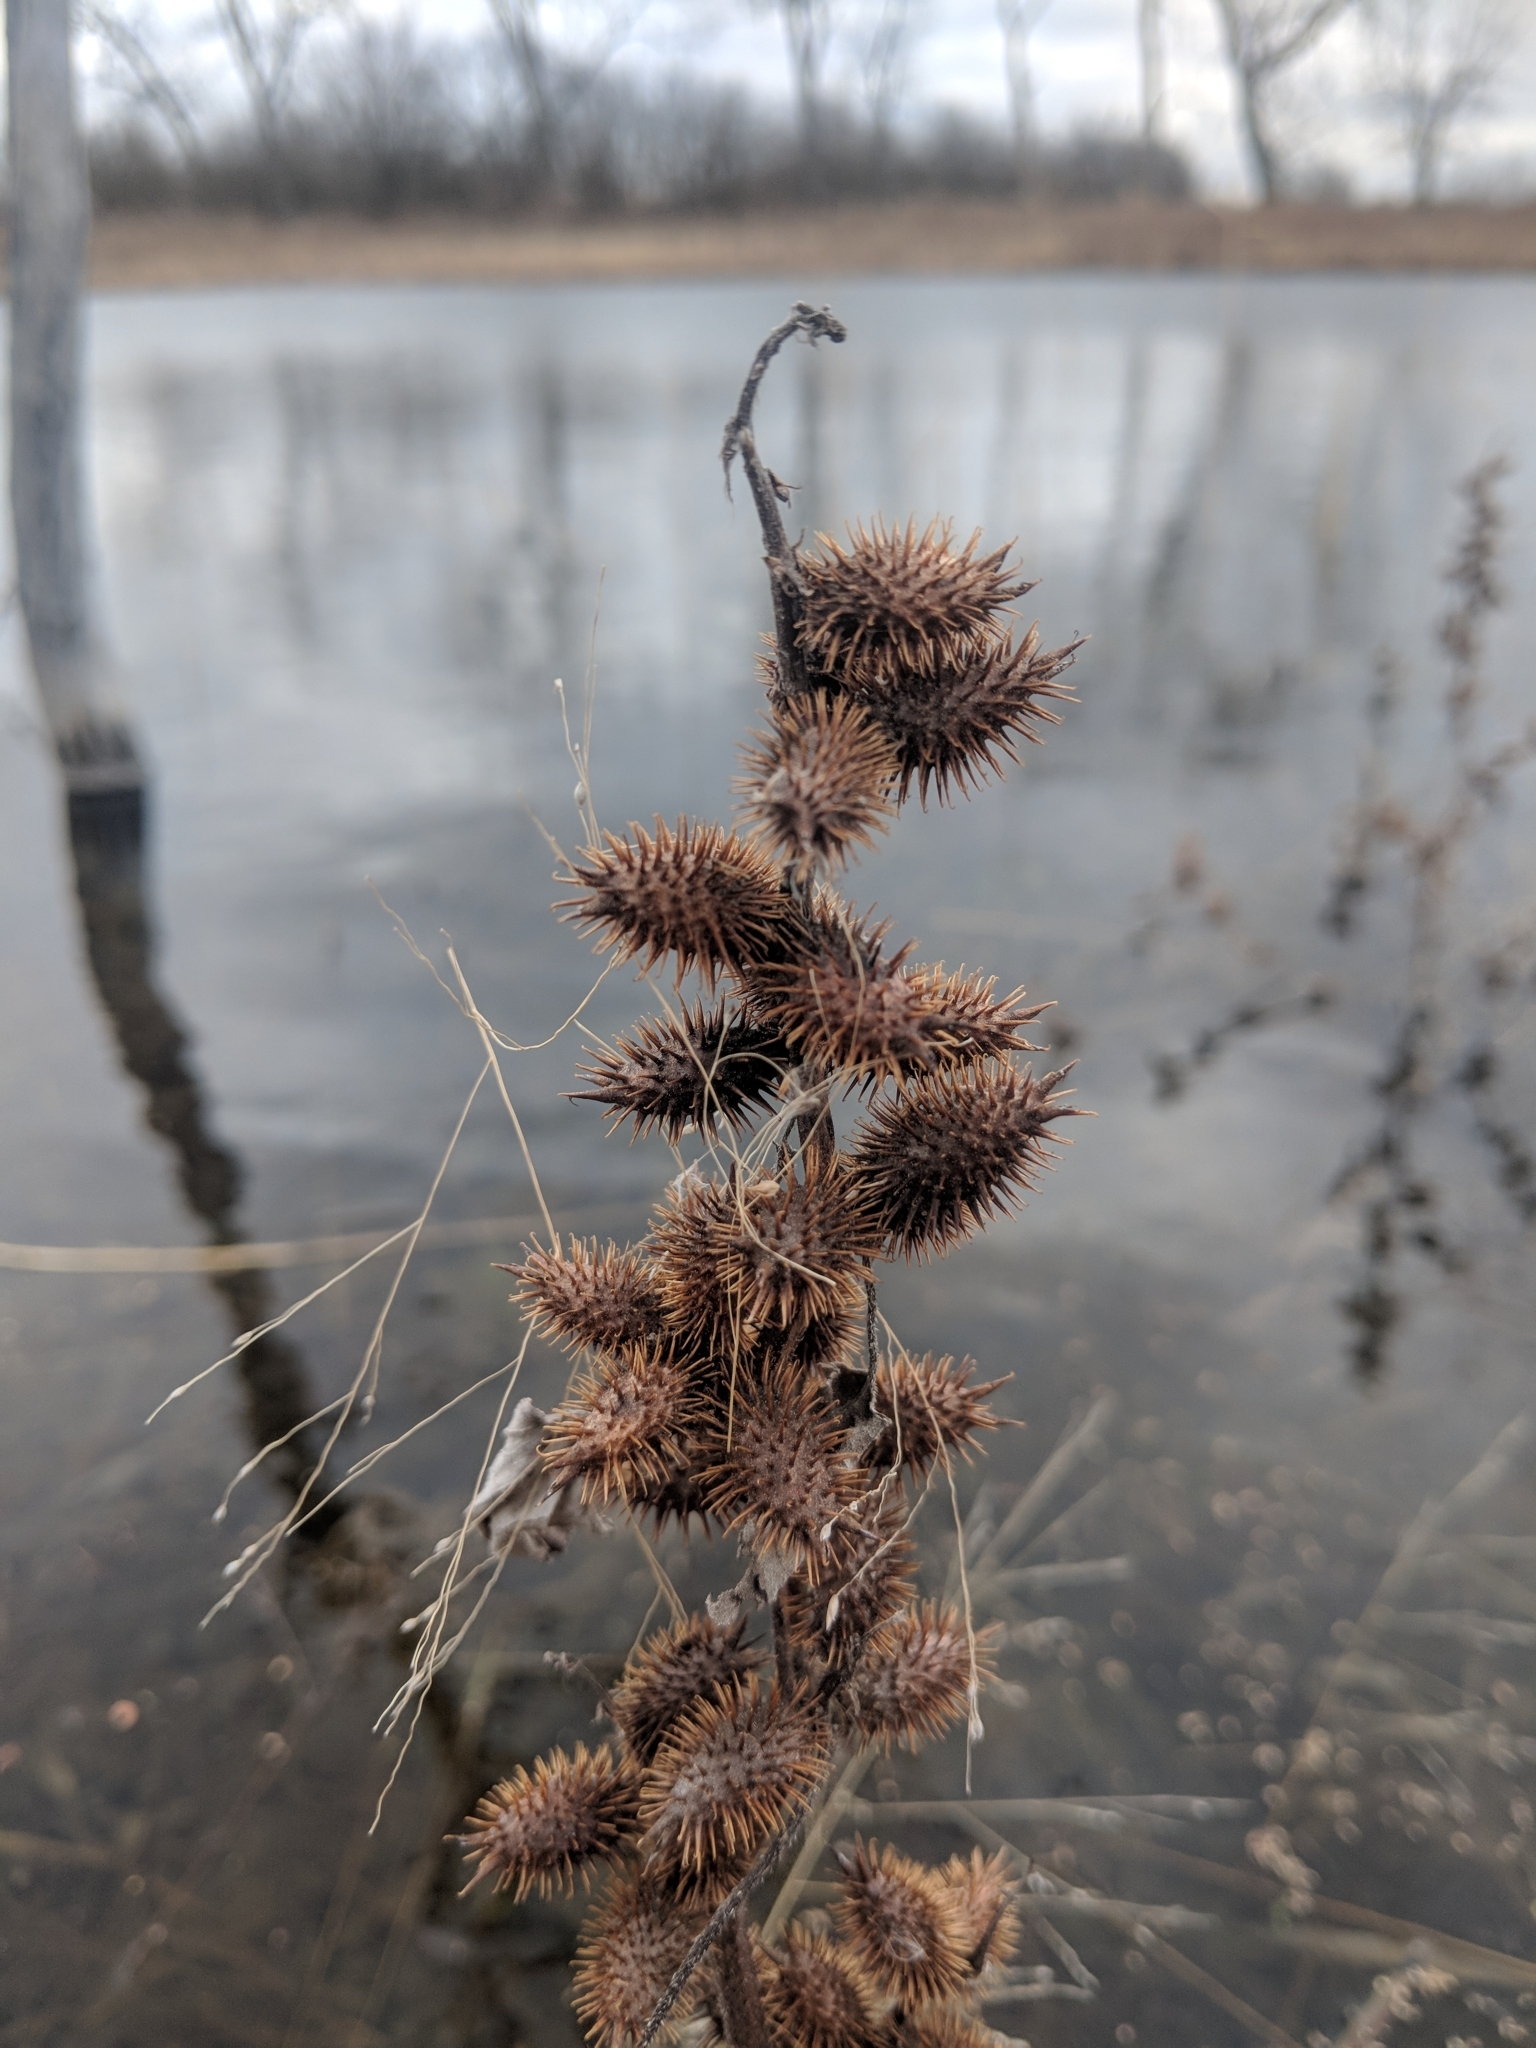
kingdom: Plantae
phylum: Tracheophyta
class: Magnoliopsida
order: Asterales
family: Asteraceae
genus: Xanthium
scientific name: Xanthium strumarium
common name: Rough cocklebur
